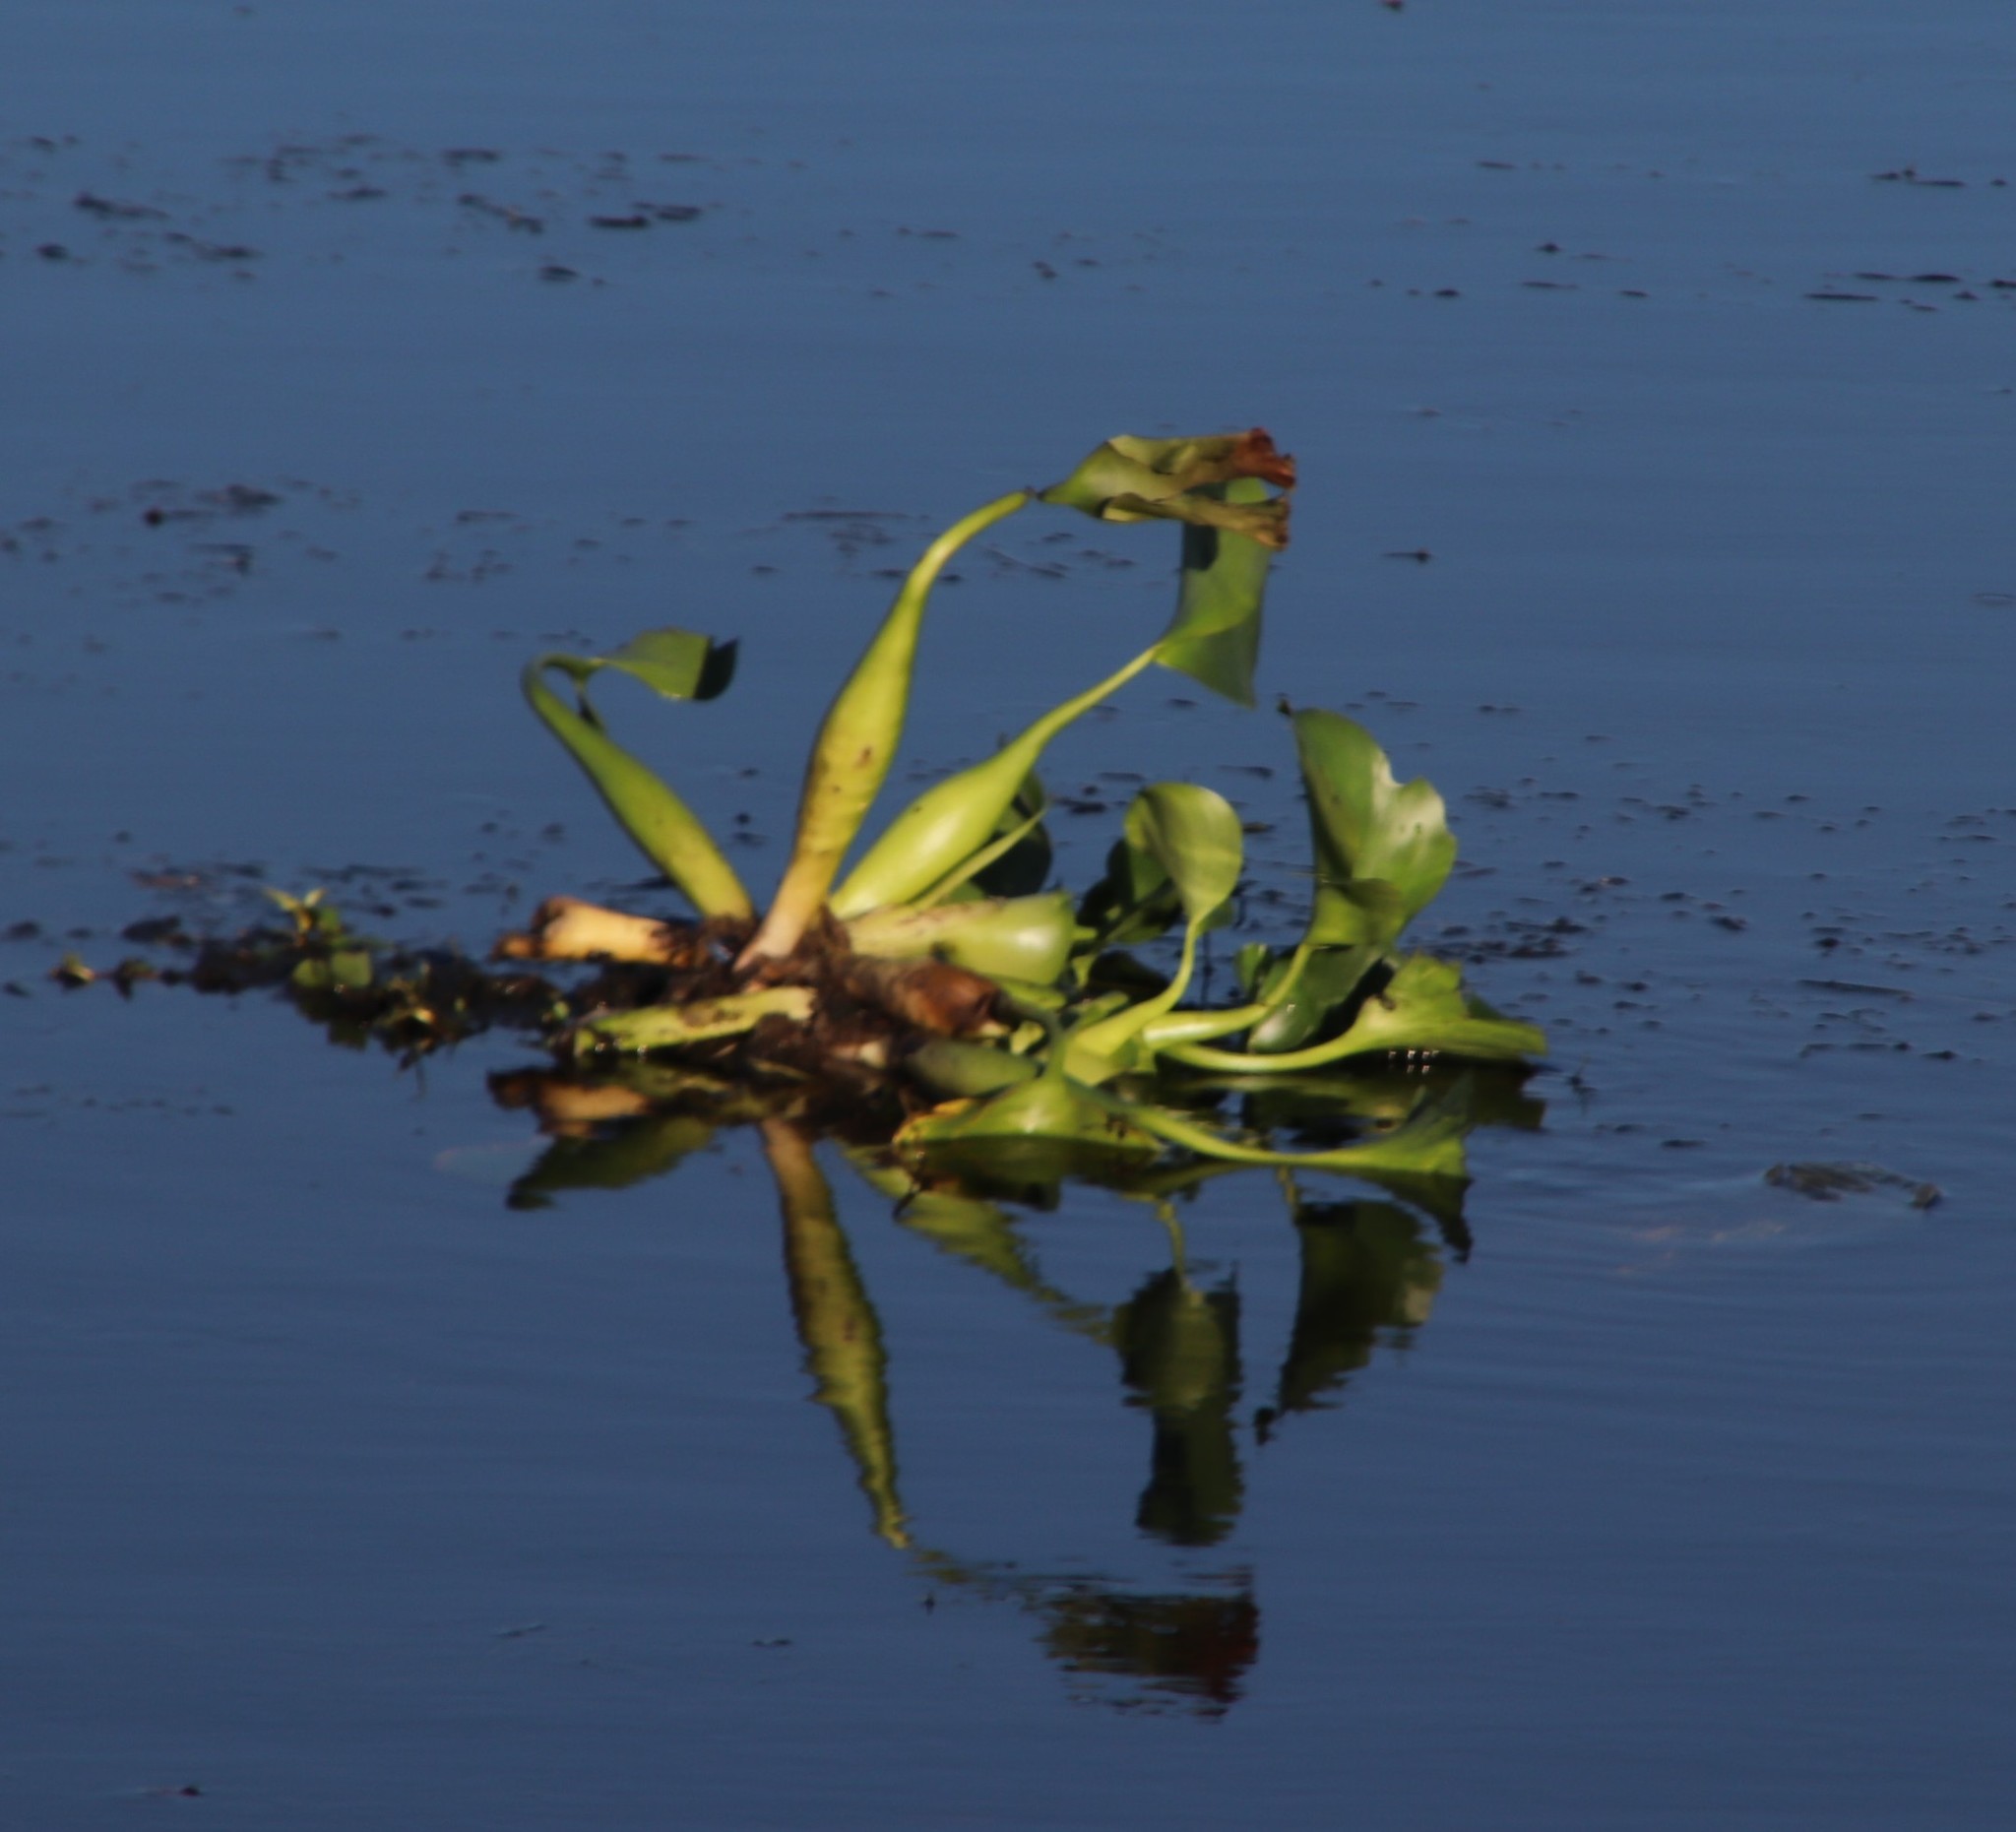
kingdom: Plantae
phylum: Tracheophyta
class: Liliopsida
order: Commelinales
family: Pontederiaceae
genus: Pontederia
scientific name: Pontederia crassipes
